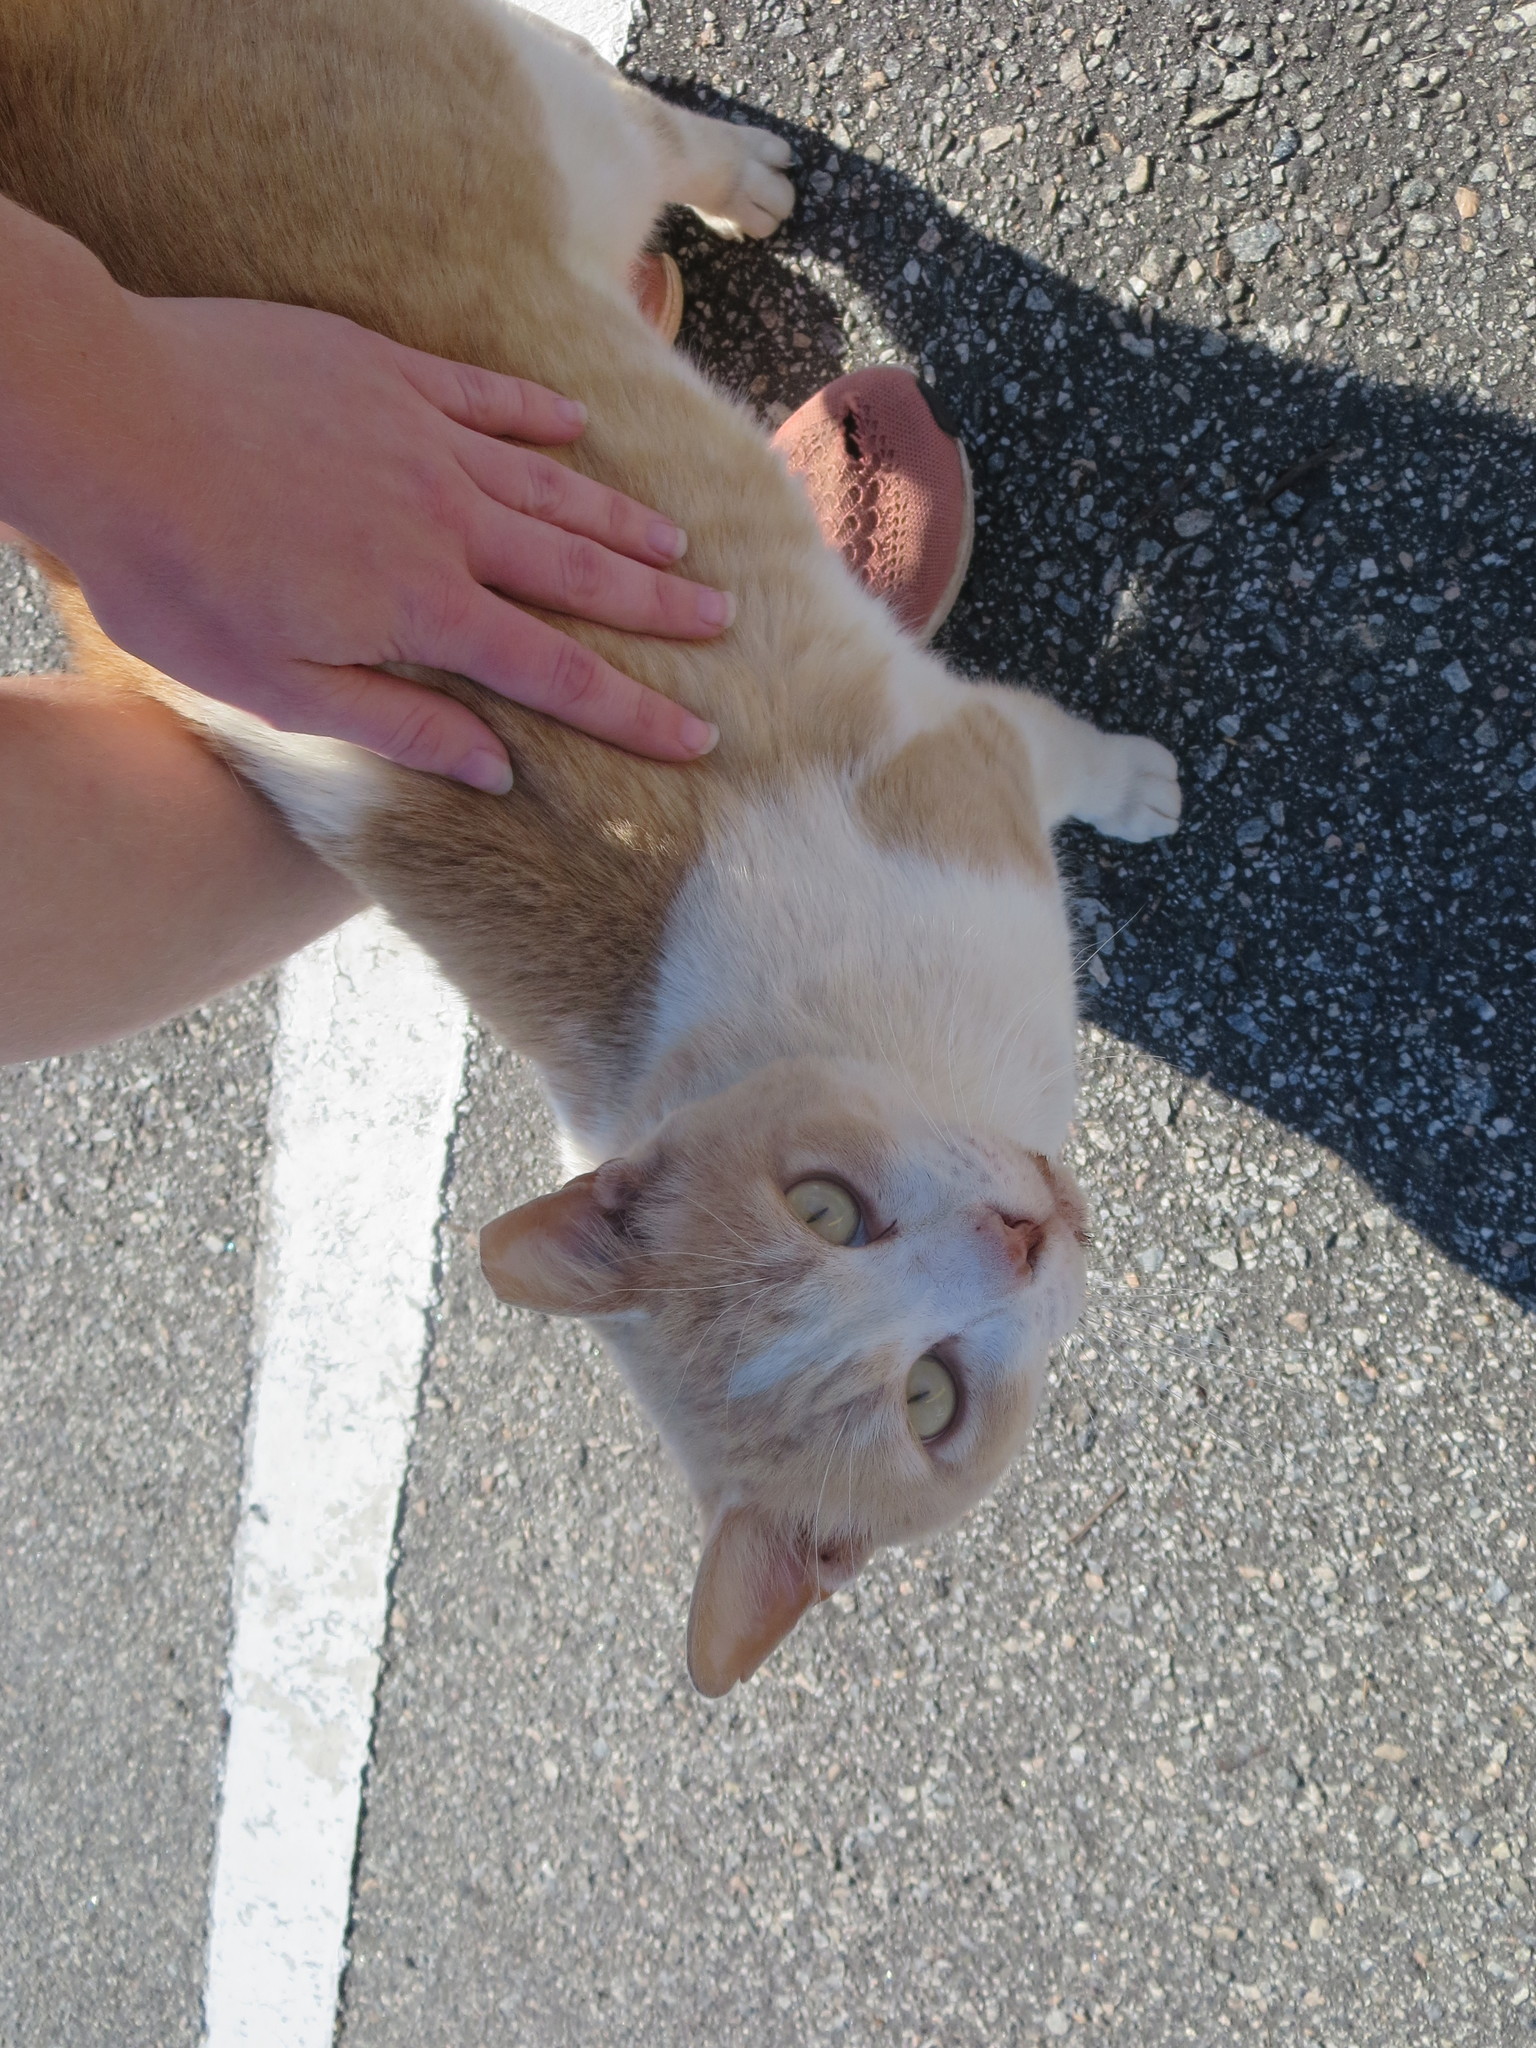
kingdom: Animalia
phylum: Chordata
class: Mammalia
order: Carnivora
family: Felidae
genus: Felis
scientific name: Felis catus
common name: Domestic cat
